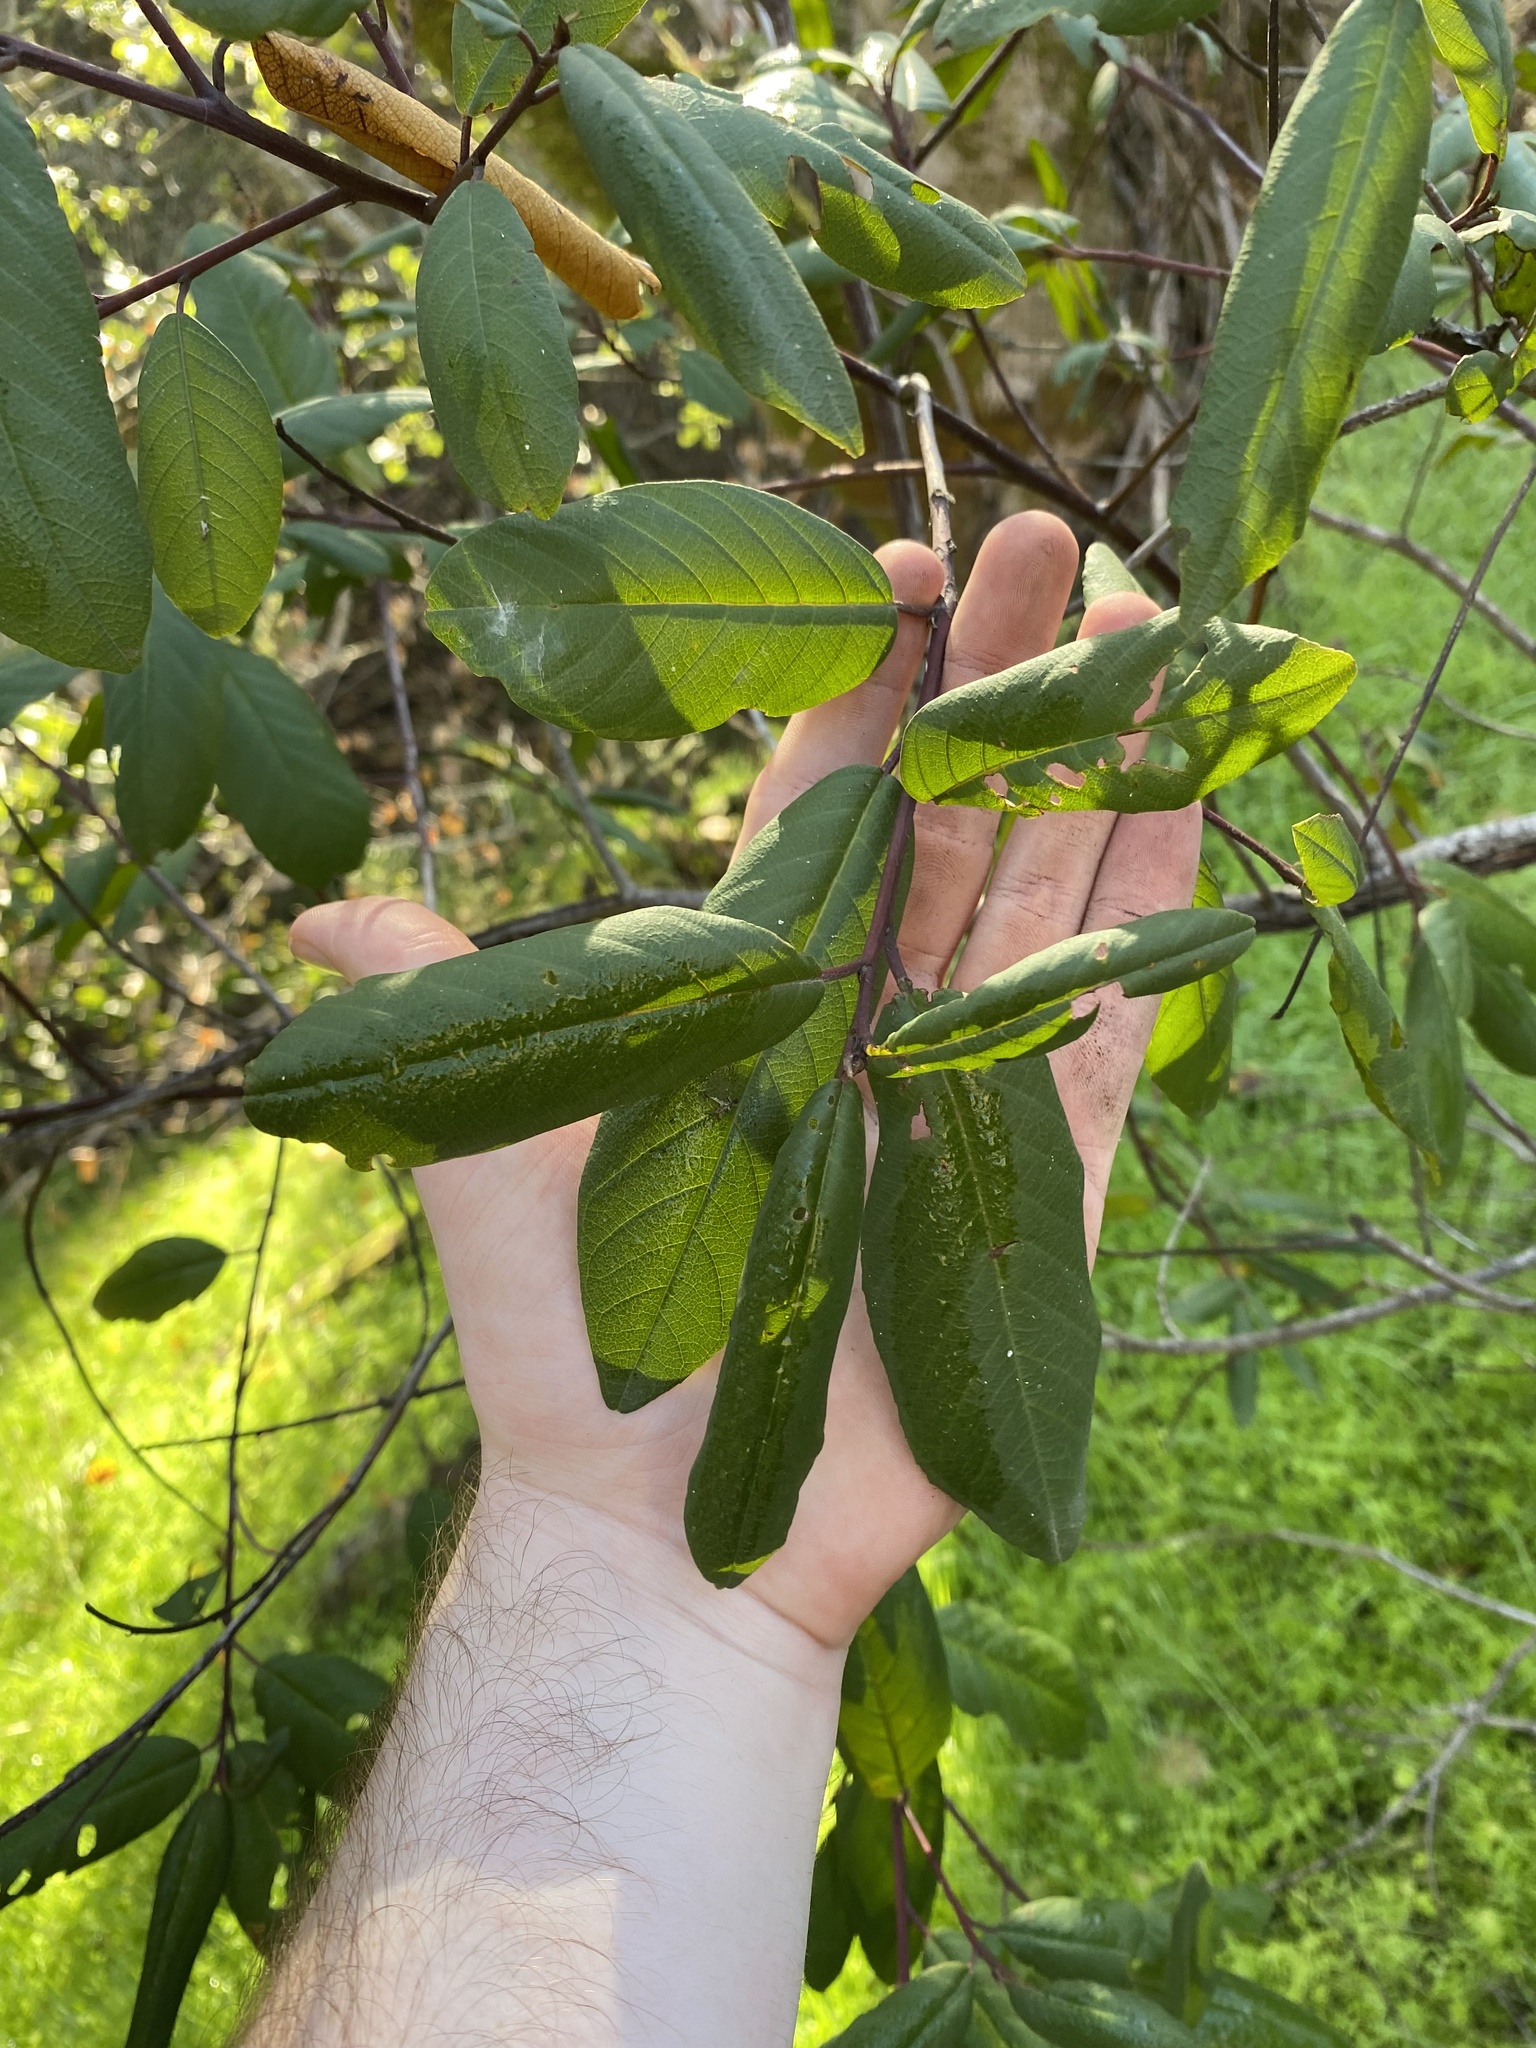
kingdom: Plantae
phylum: Tracheophyta
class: Magnoliopsida
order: Rosales
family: Rhamnaceae
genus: Frangula
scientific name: Frangula californica
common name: California buckthorn
